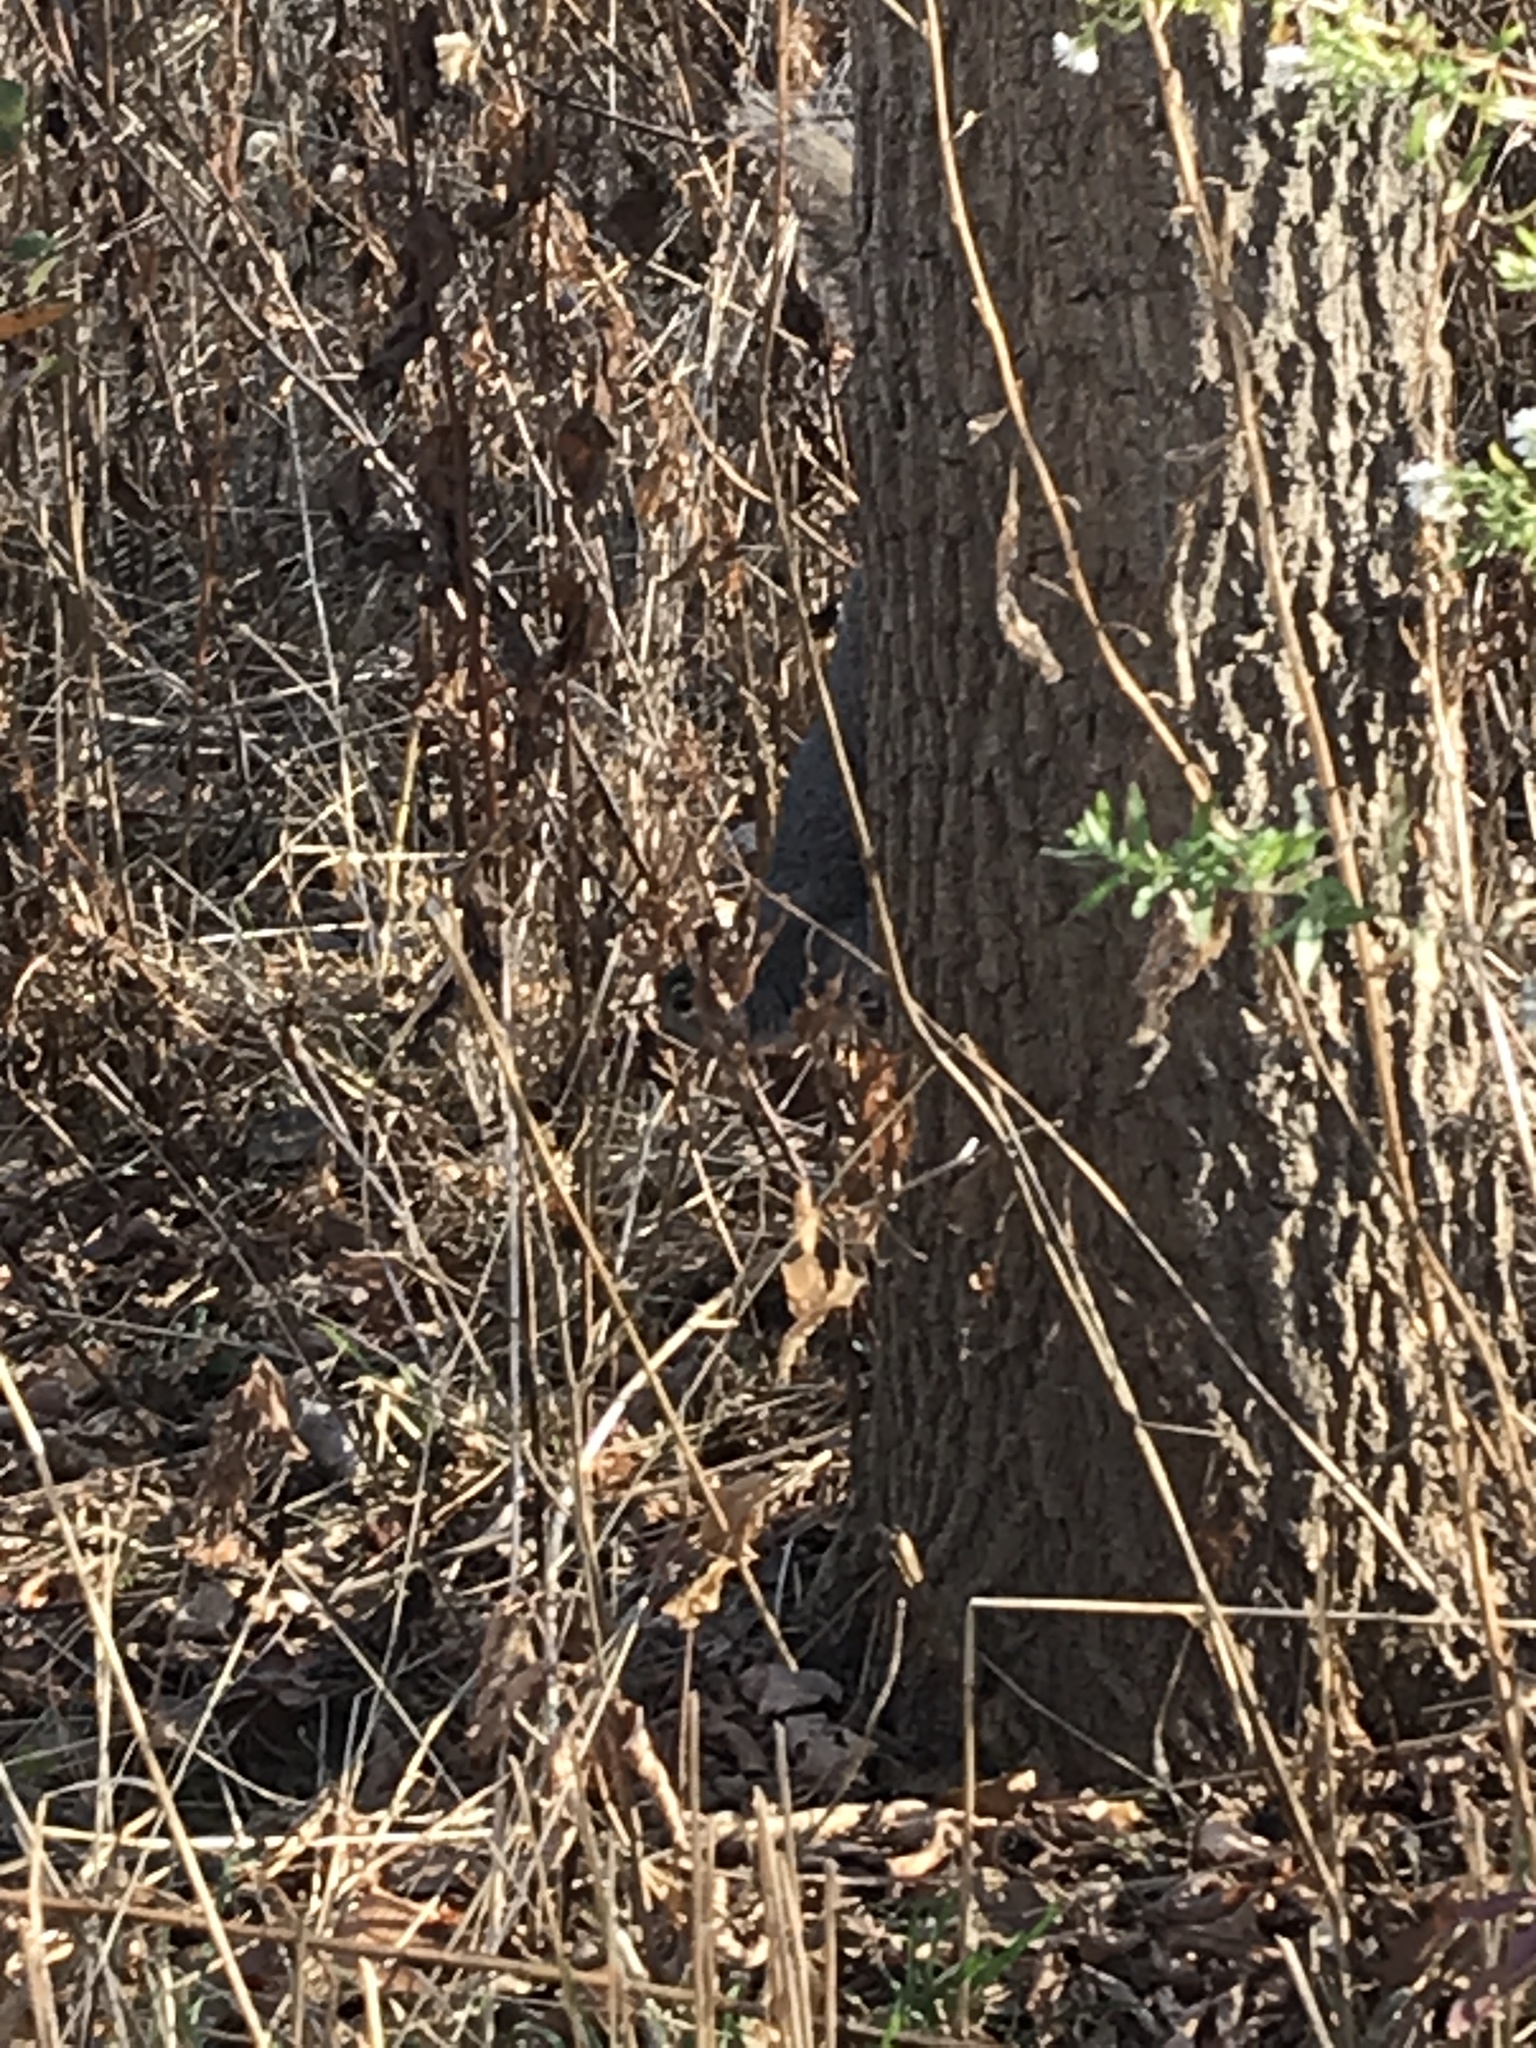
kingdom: Animalia
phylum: Chordata
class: Mammalia
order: Rodentia
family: Sciuridae
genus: Sciurus
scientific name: Sciurus carolinensis
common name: Eastern gray squirrel
